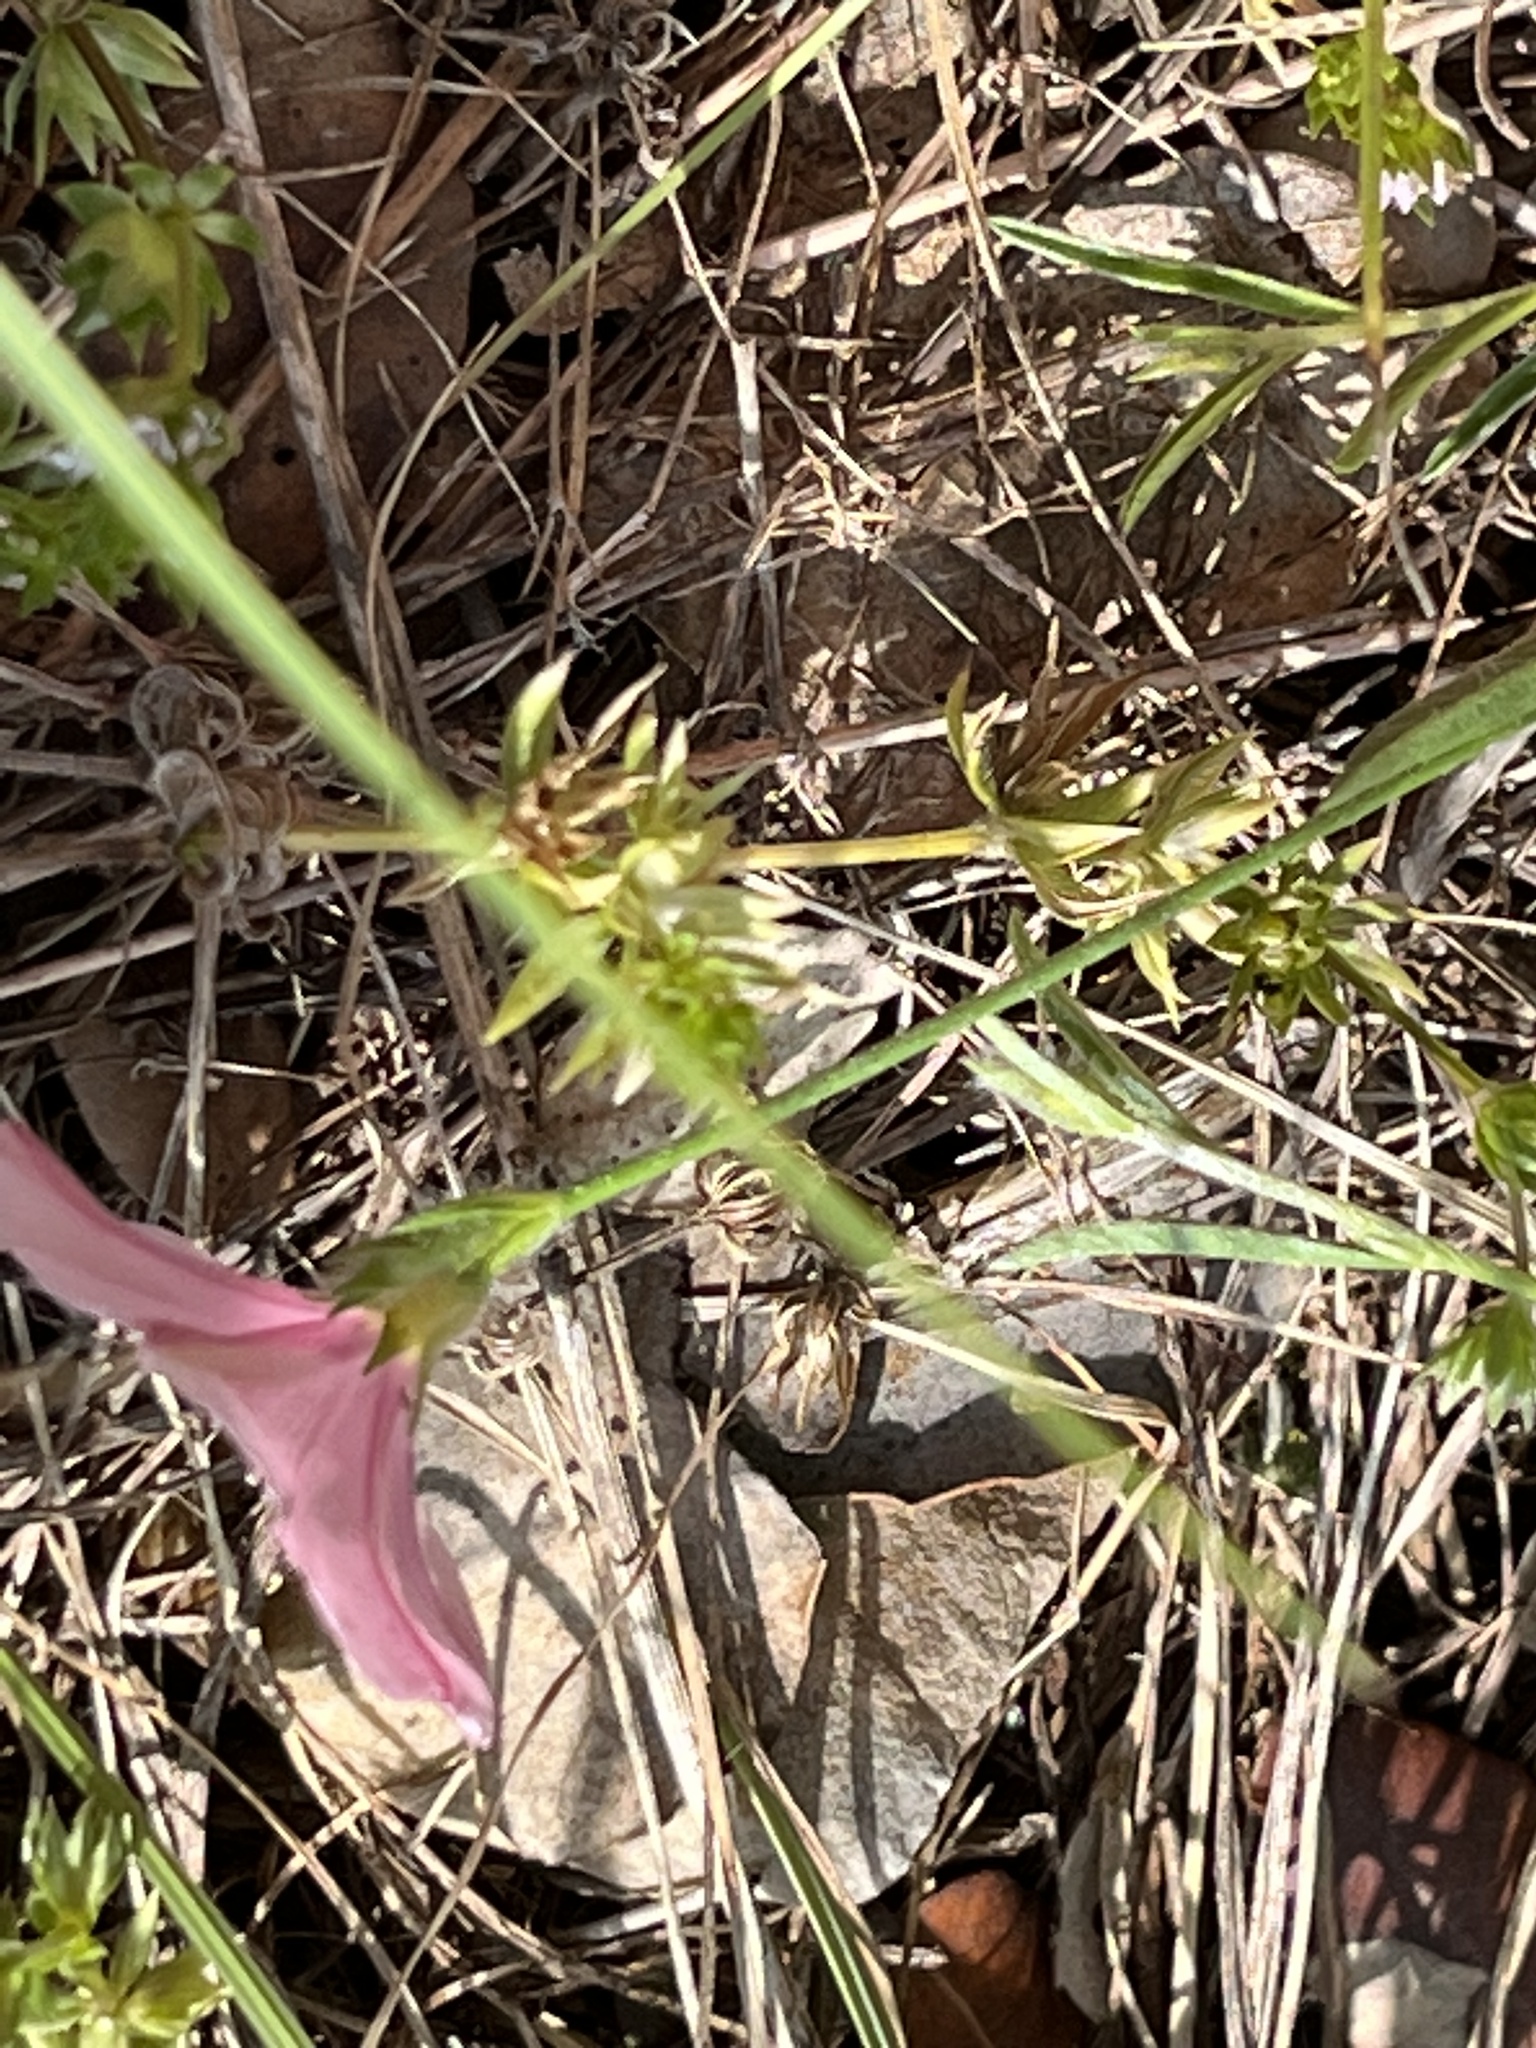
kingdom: Plantae
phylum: Tracheophyta
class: Magnoliopsida
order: Solanales
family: Convolvulaceae
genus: Convolvulus
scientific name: Convolvulus cantabrica
